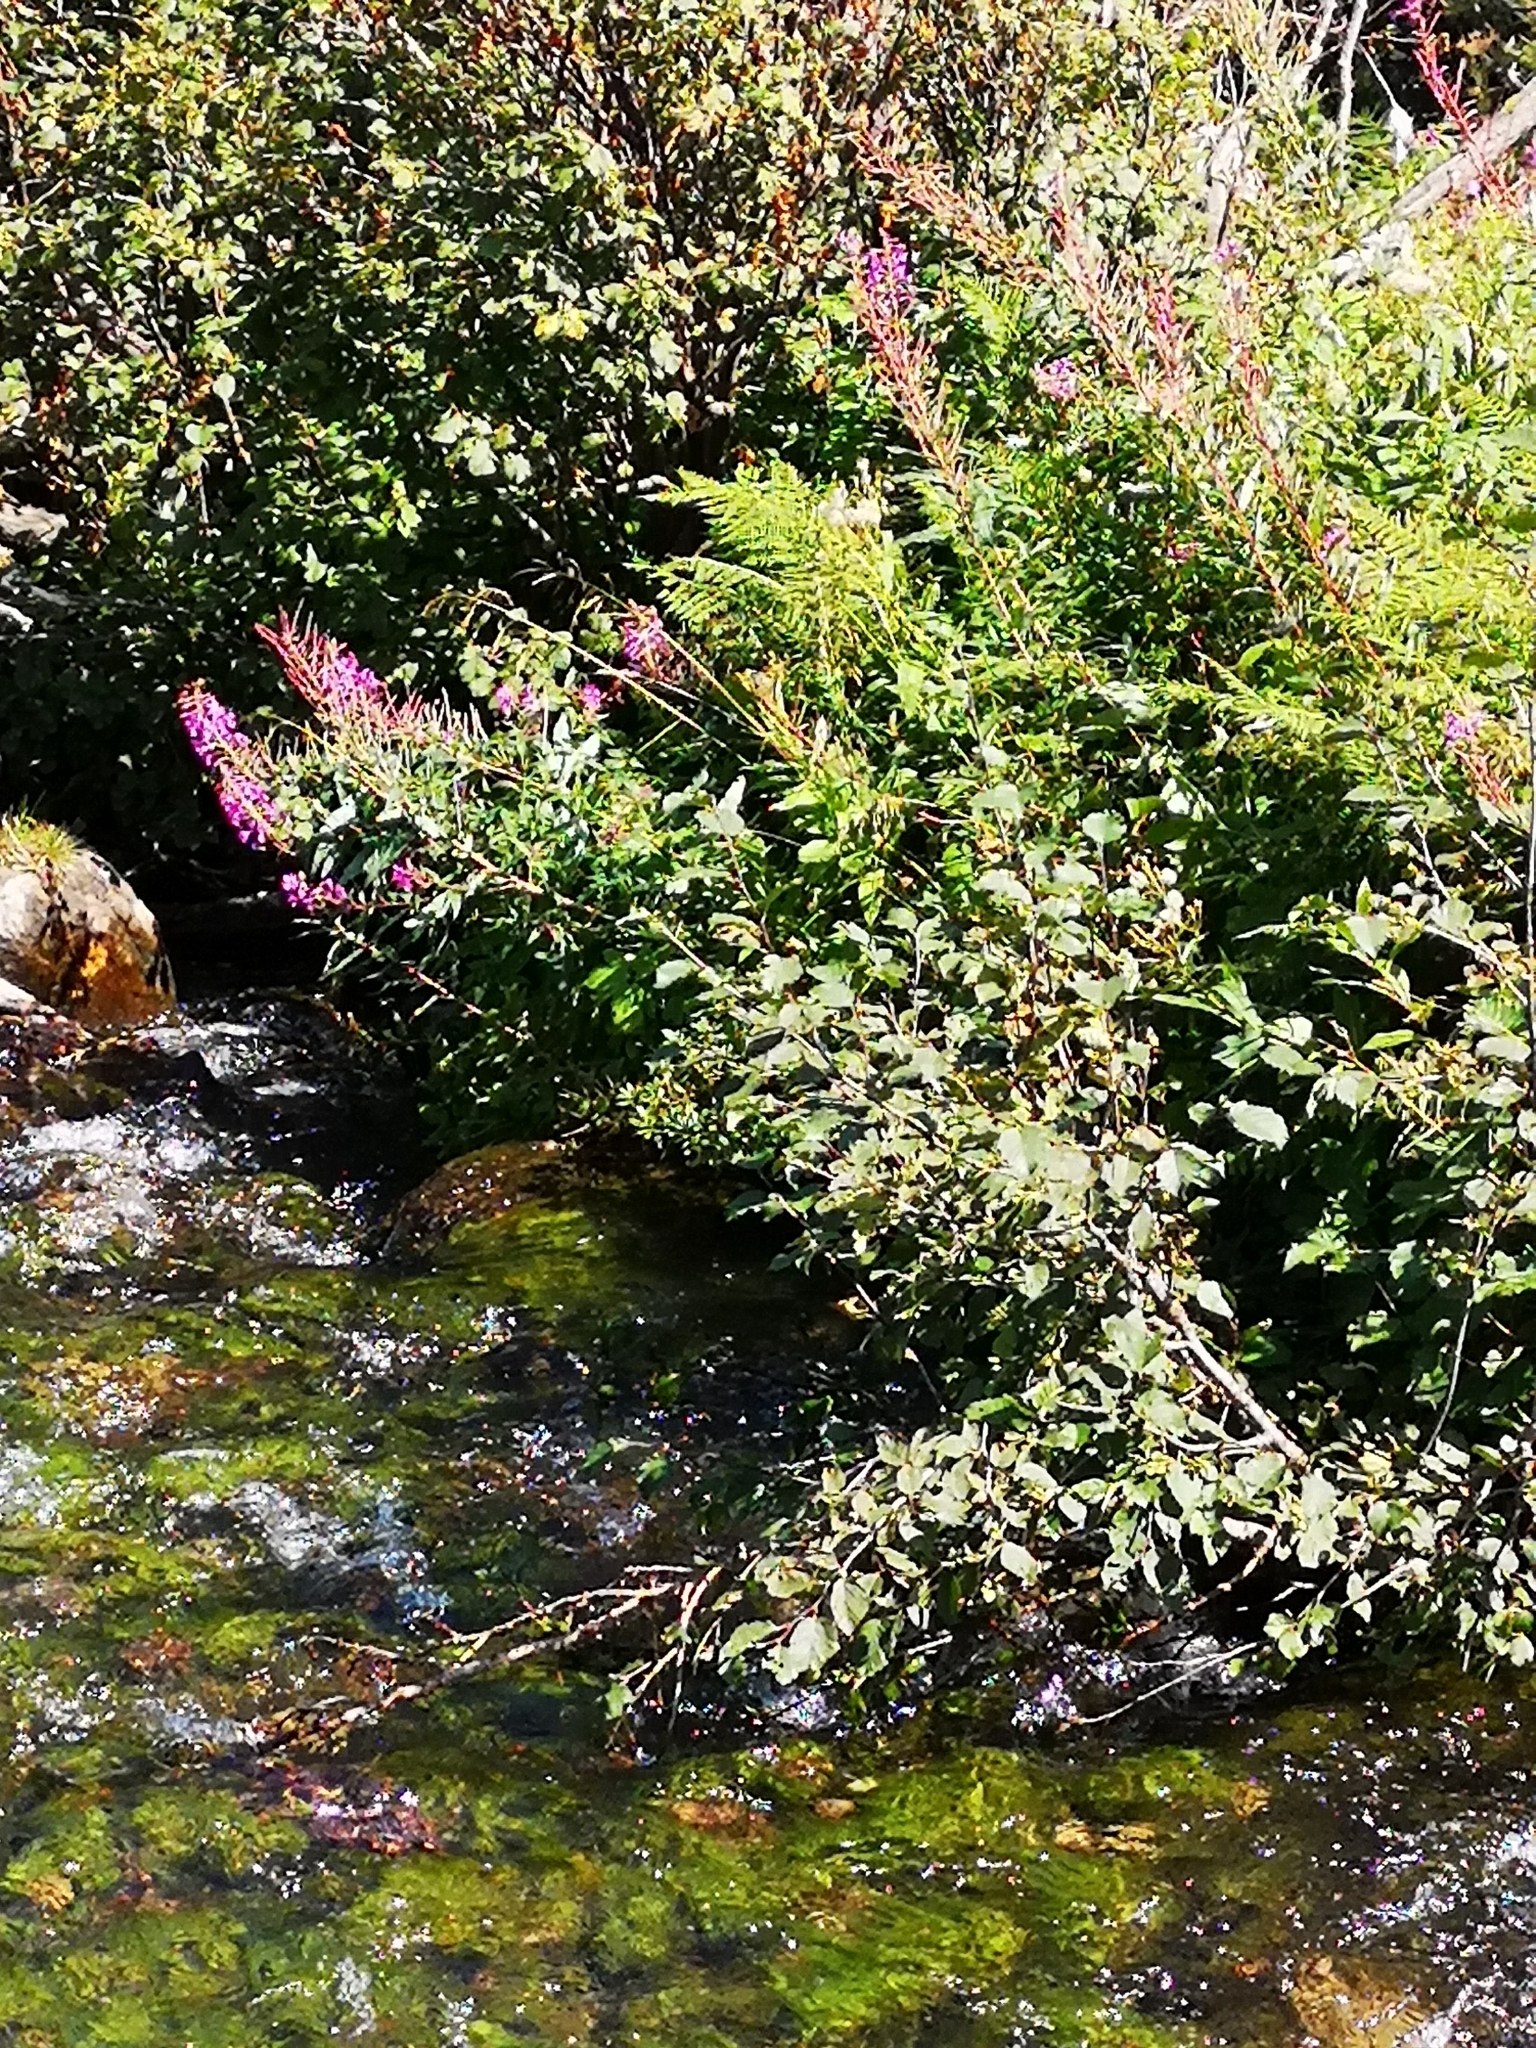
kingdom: Plantae
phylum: Tracheophyta
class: Magnoliopsida
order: Myrtales
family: Onagraceae
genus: Chamaenerion
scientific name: Chamaenerion angustifolium
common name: Fireweed
